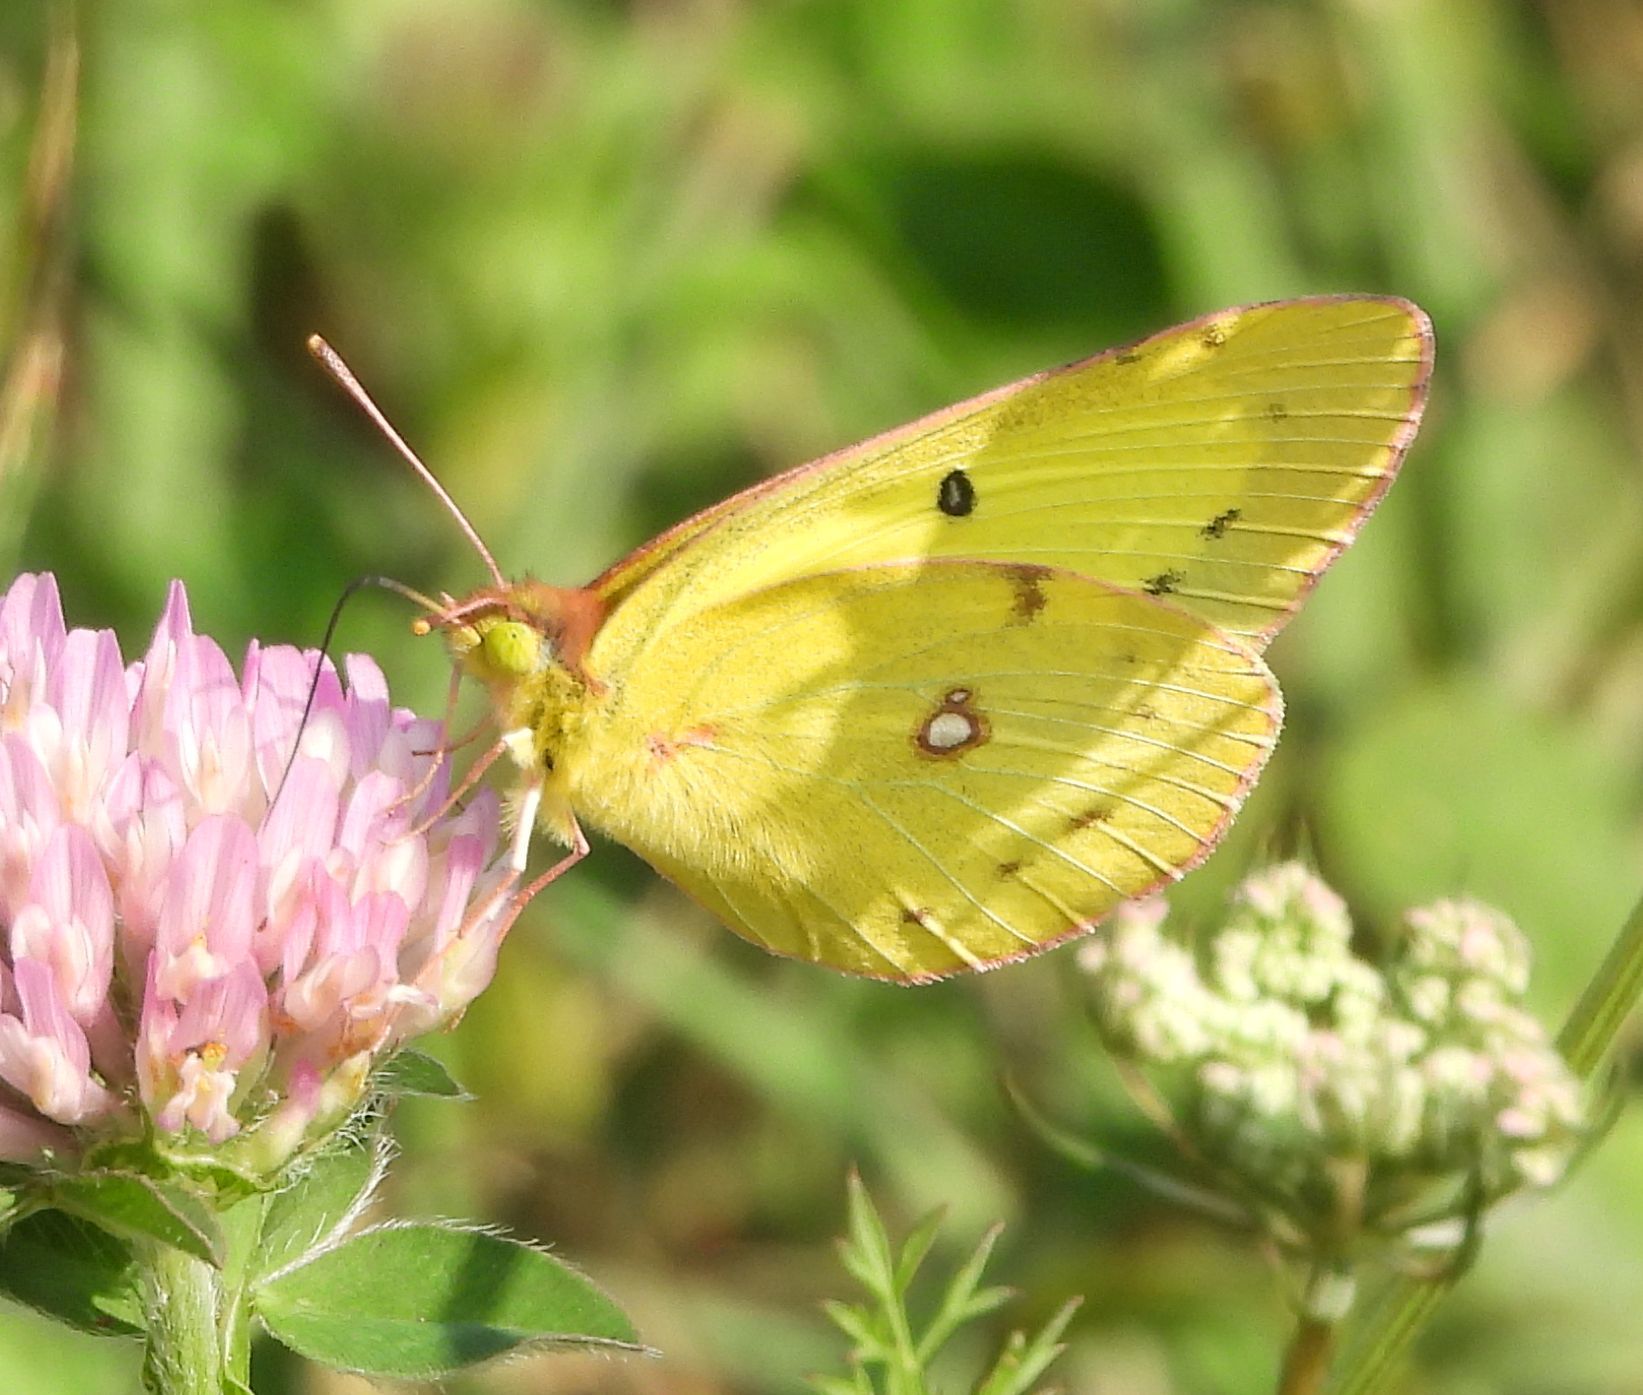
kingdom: Animalia
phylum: Arthropoda
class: Insecta
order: Lepidoptera
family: Pieridae
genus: Colias
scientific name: Colias philodice
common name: Clouded sulphur
